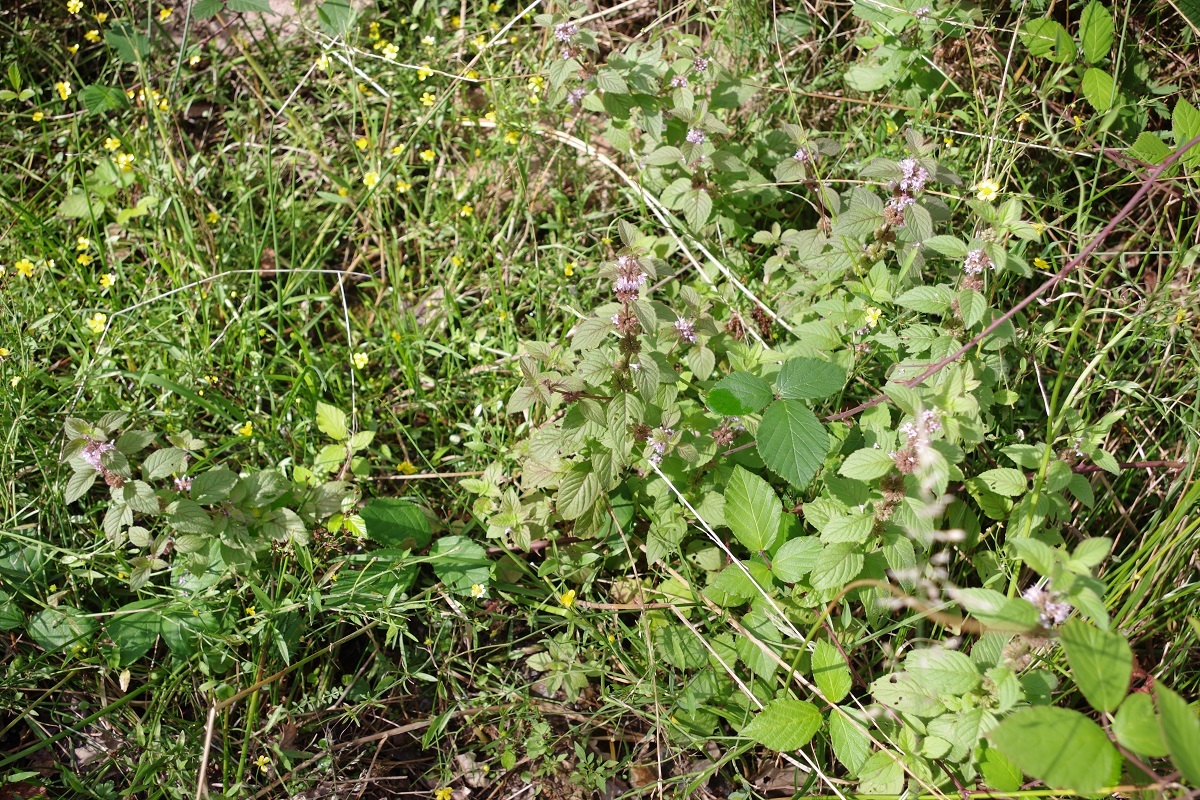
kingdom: Plantae
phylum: Tracheophyta
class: Magnoliopsida
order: Lamiales
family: Lamiaceae
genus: Mentha
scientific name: Mentha arvensis
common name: Corn mint
